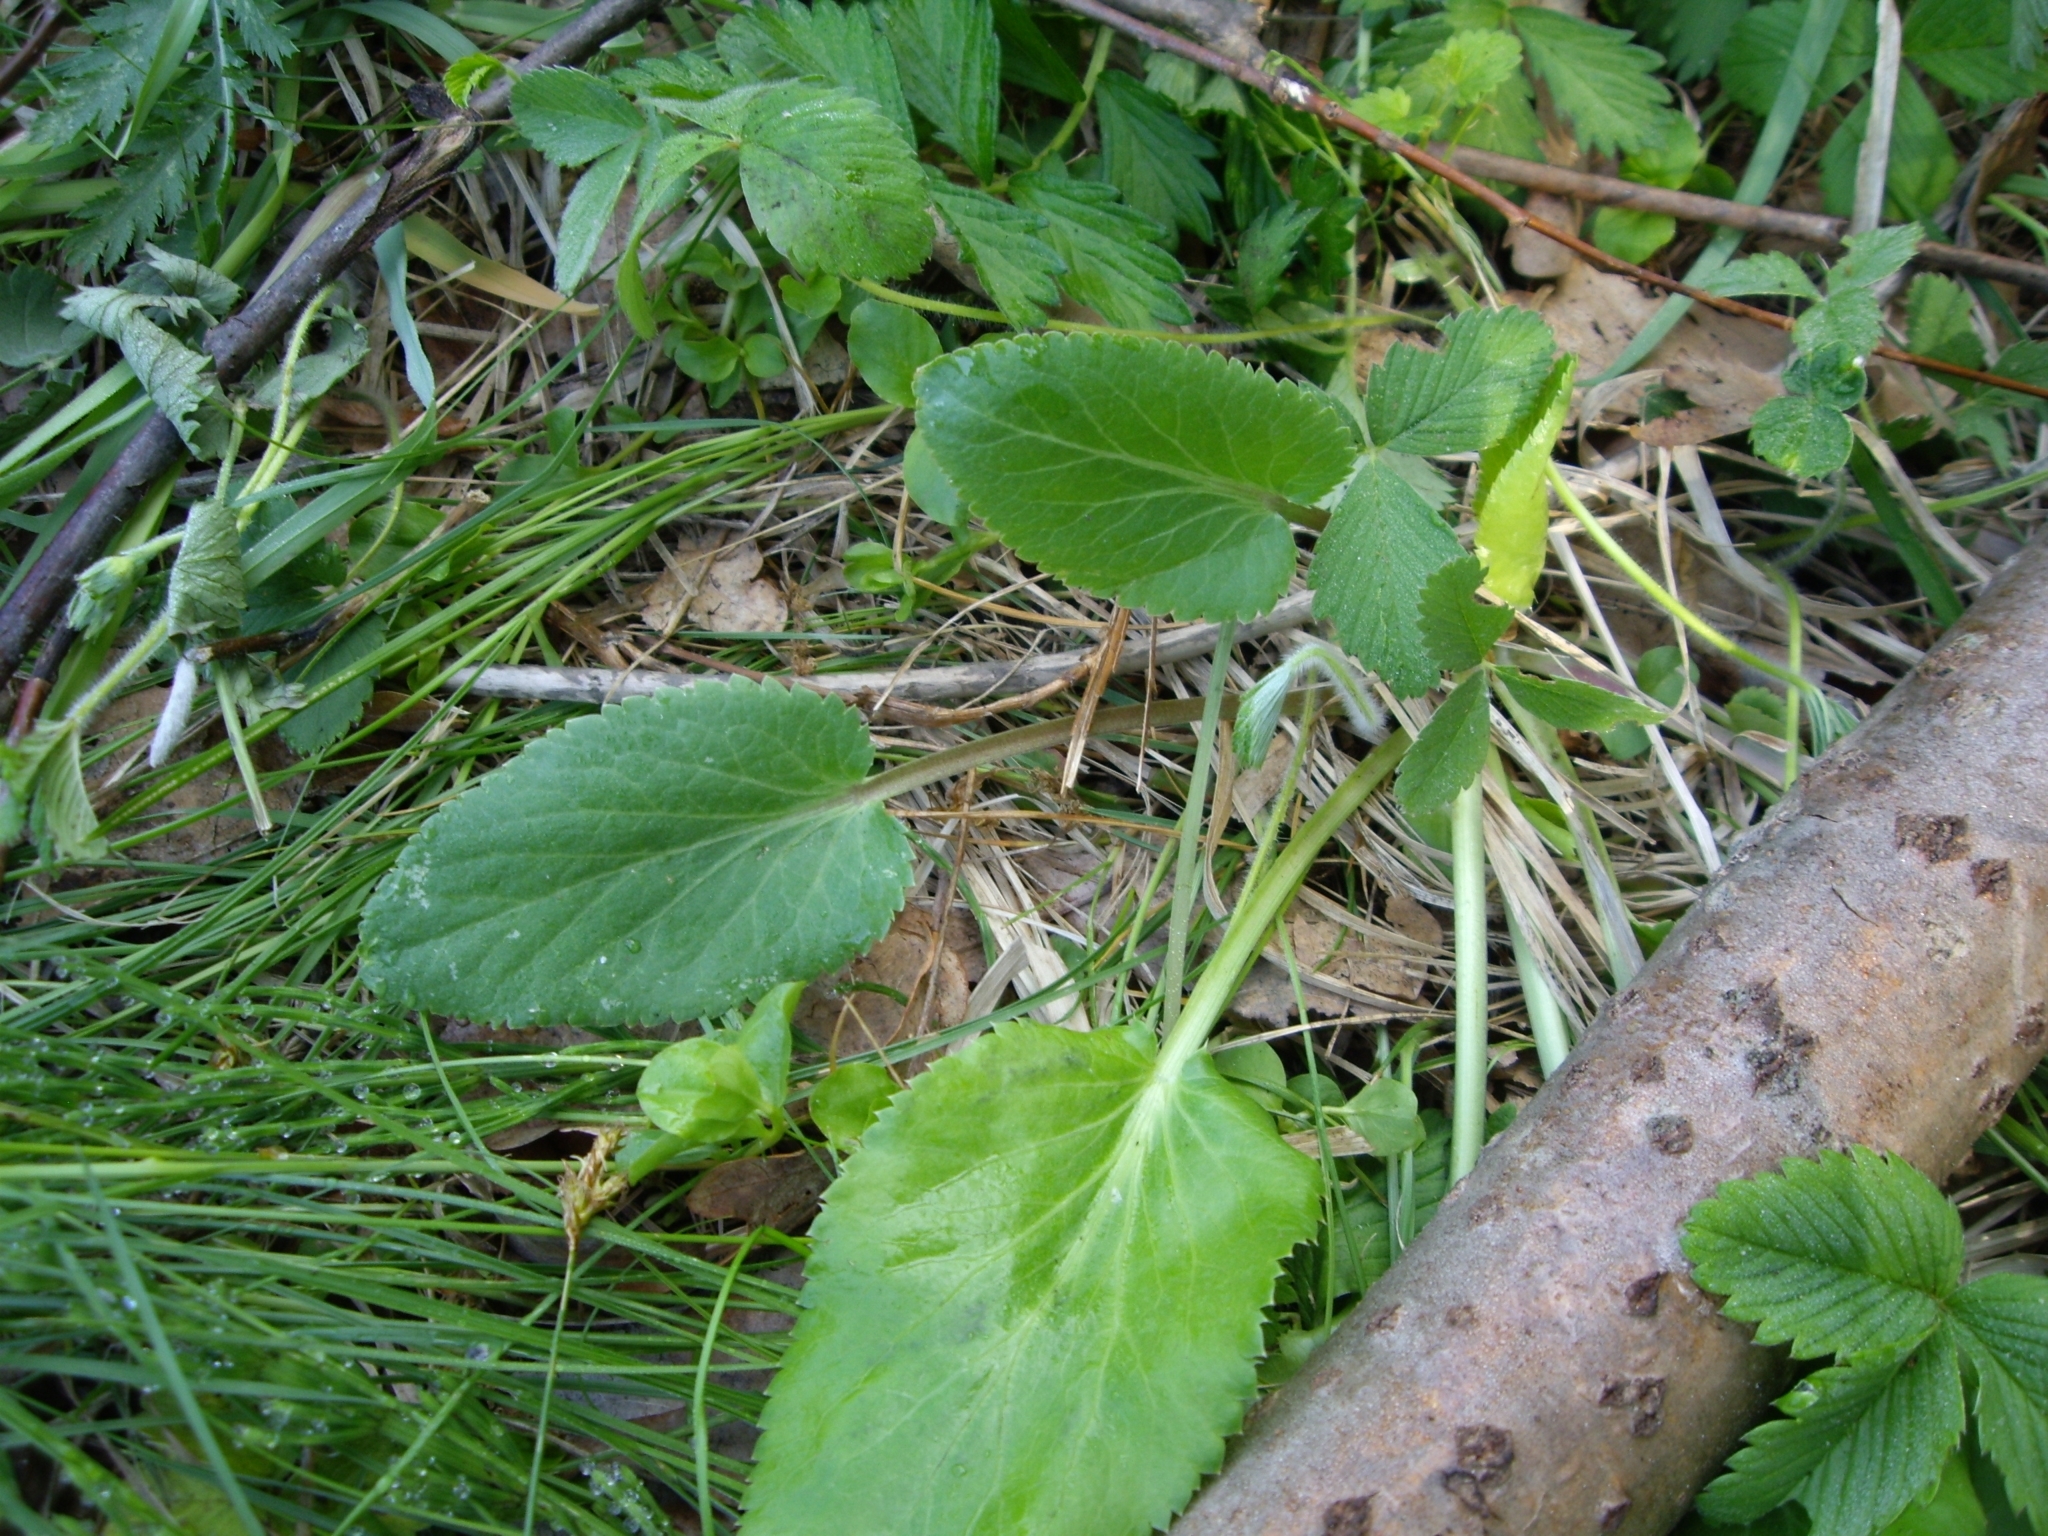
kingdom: Plantae
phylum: Tracheophyta
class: Magnoliopsida
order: Apiales
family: Apiaceae
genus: Eryngium
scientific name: Eryngium planum
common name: Blue eryngo
